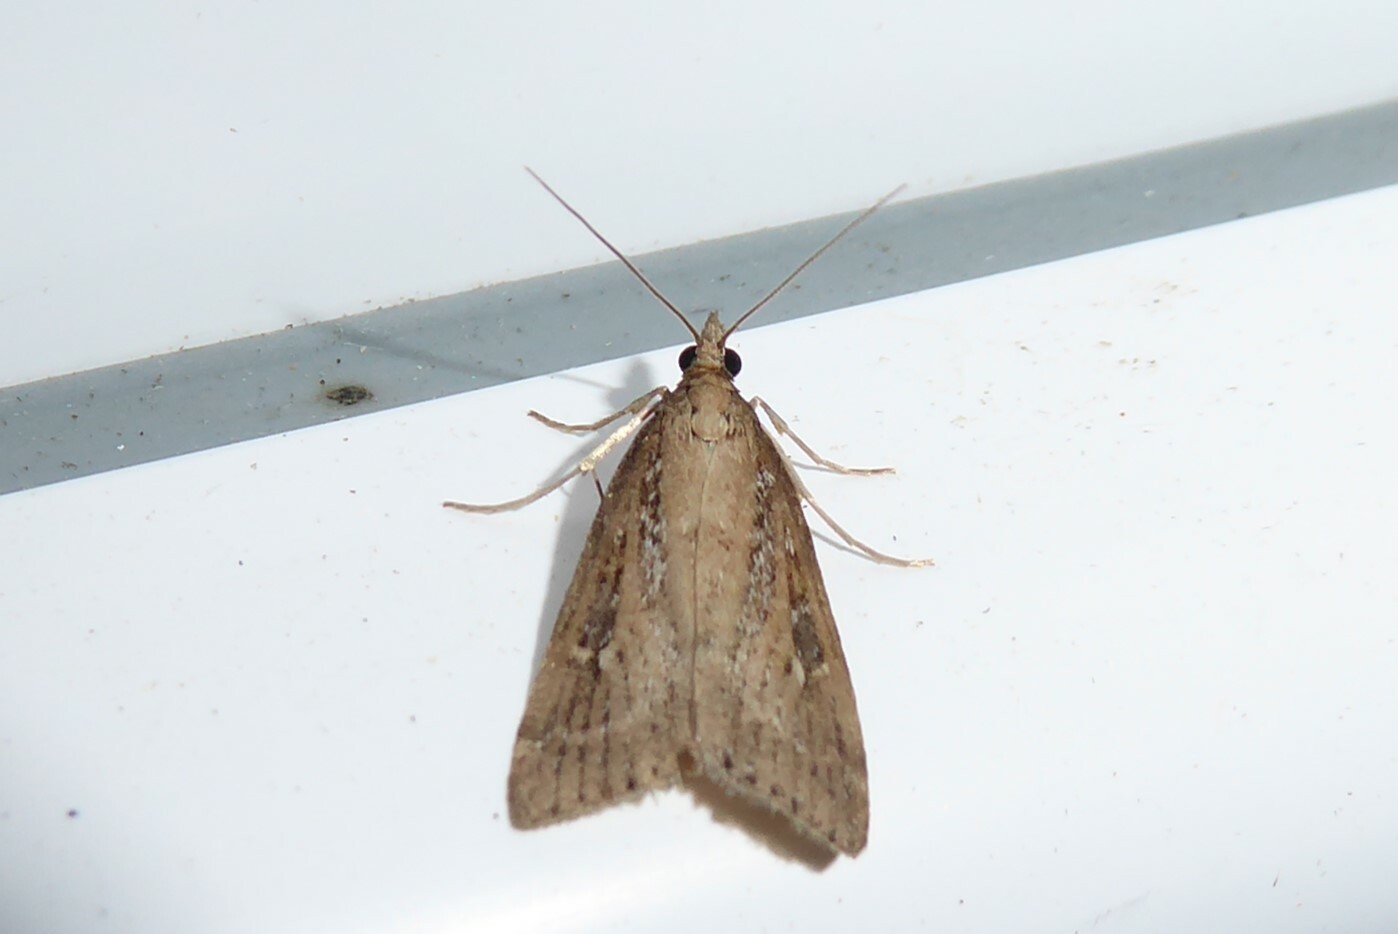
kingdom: Animalia
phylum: Arthropoda
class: Insecta
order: Lepidoptera
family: Crambidae
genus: Eudonia
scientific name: Eudonia octophora
